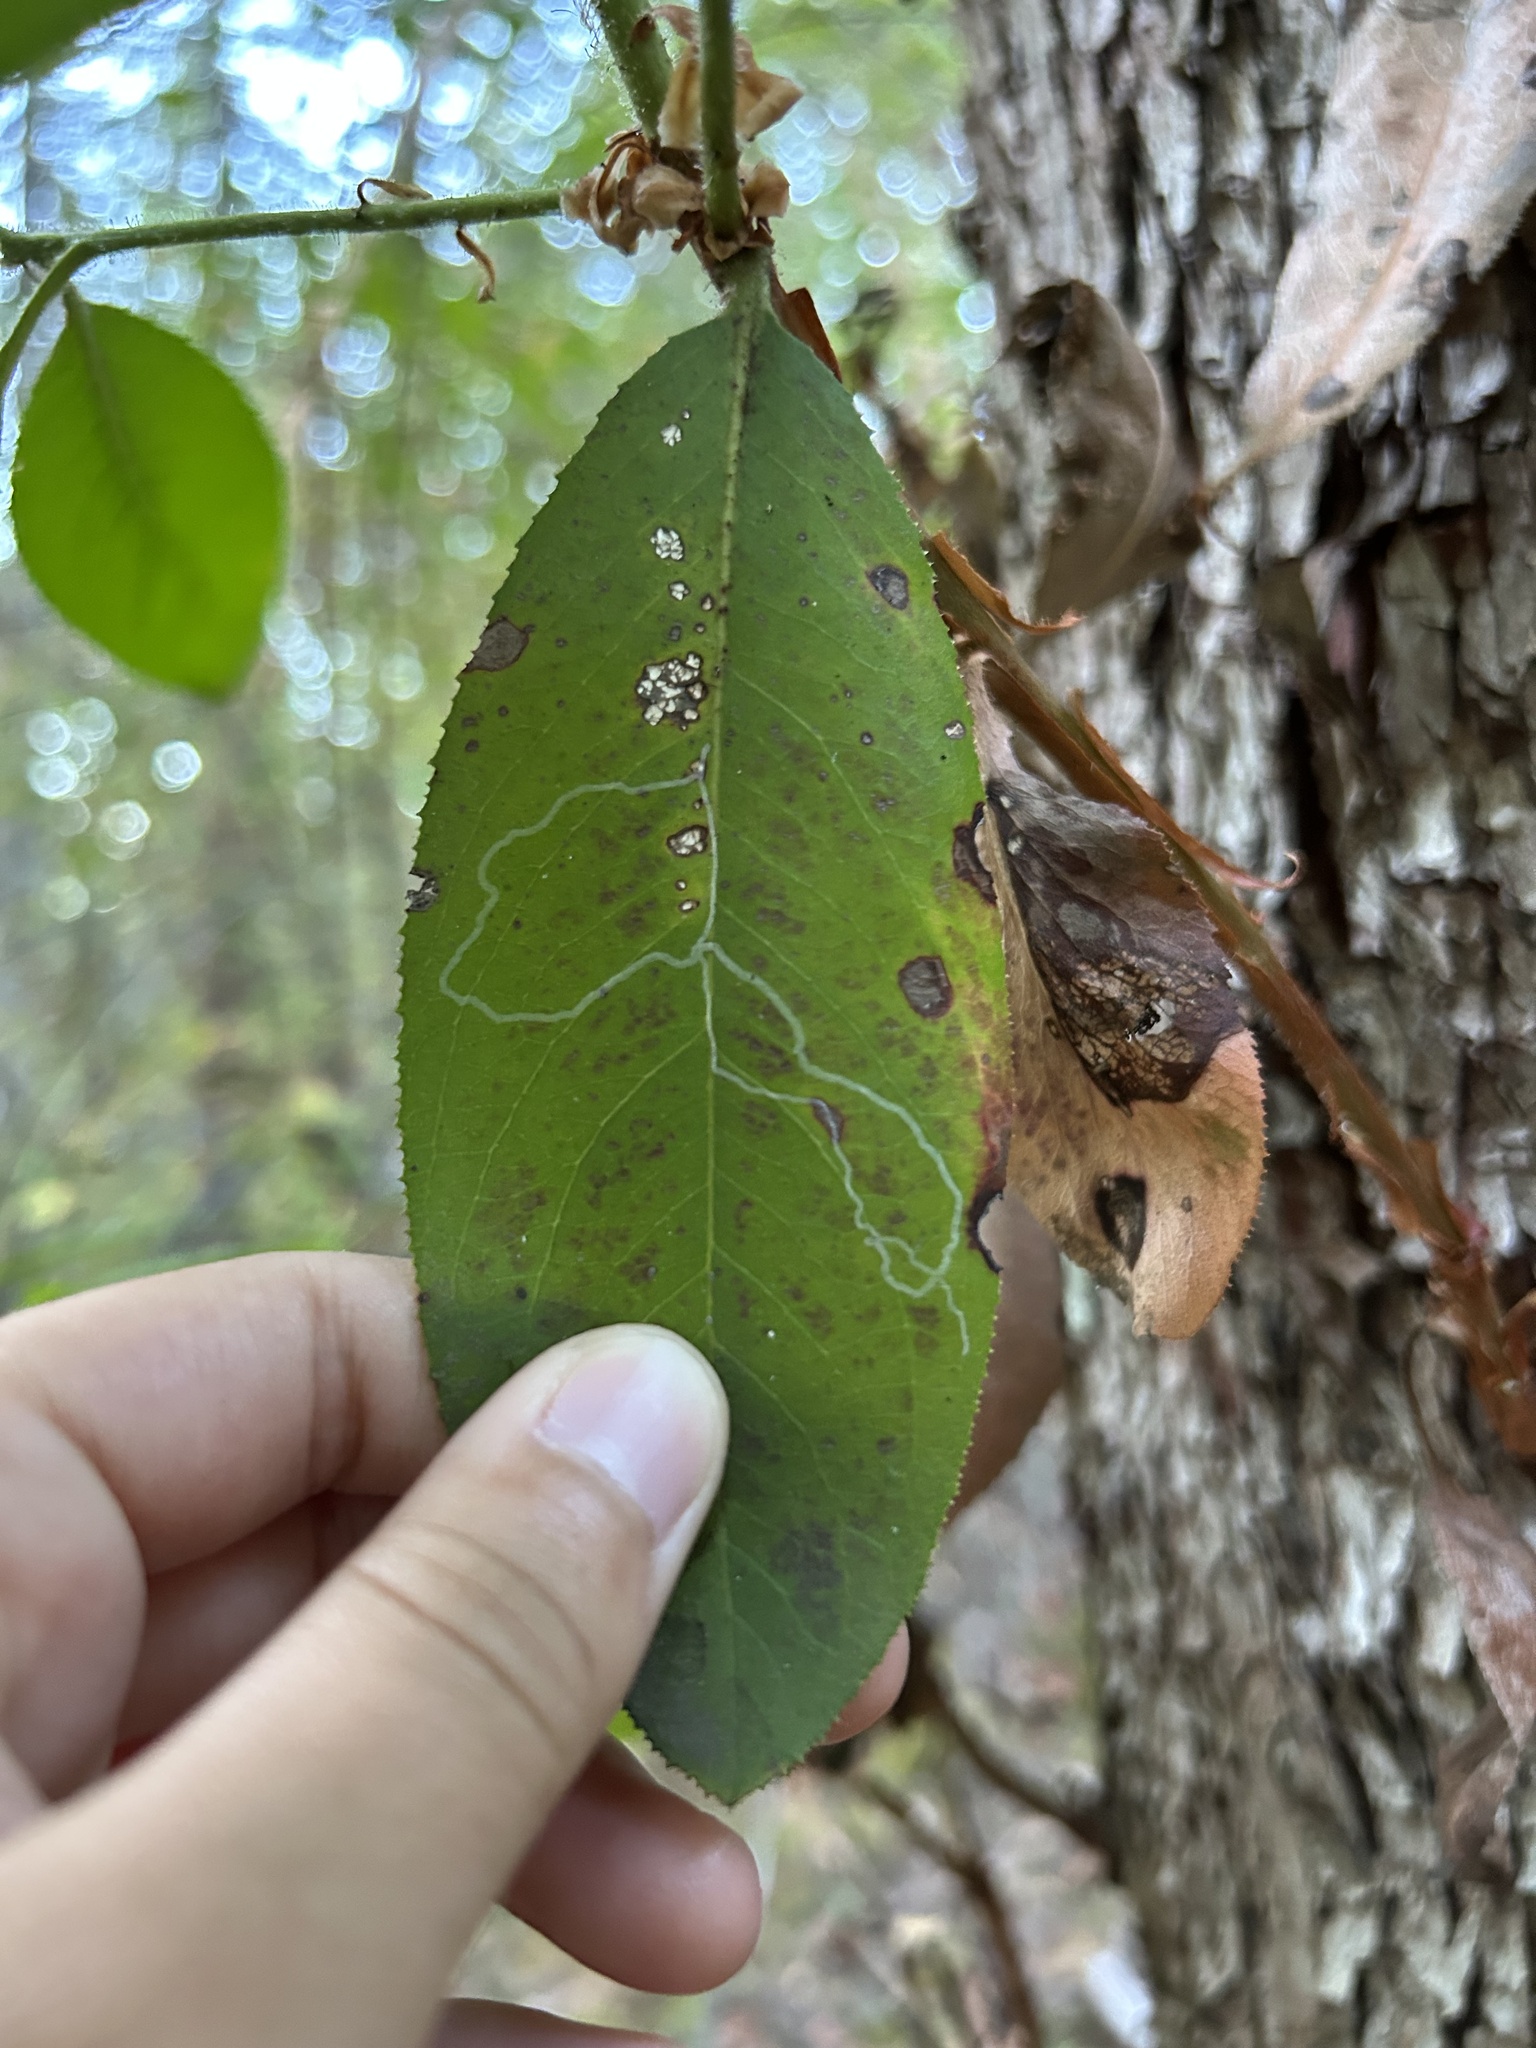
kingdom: Animalia
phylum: Arthropoda
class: Insecta
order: Lepidoptera
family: Gracillariidae
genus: Marmara
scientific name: Marmara arbutiella
